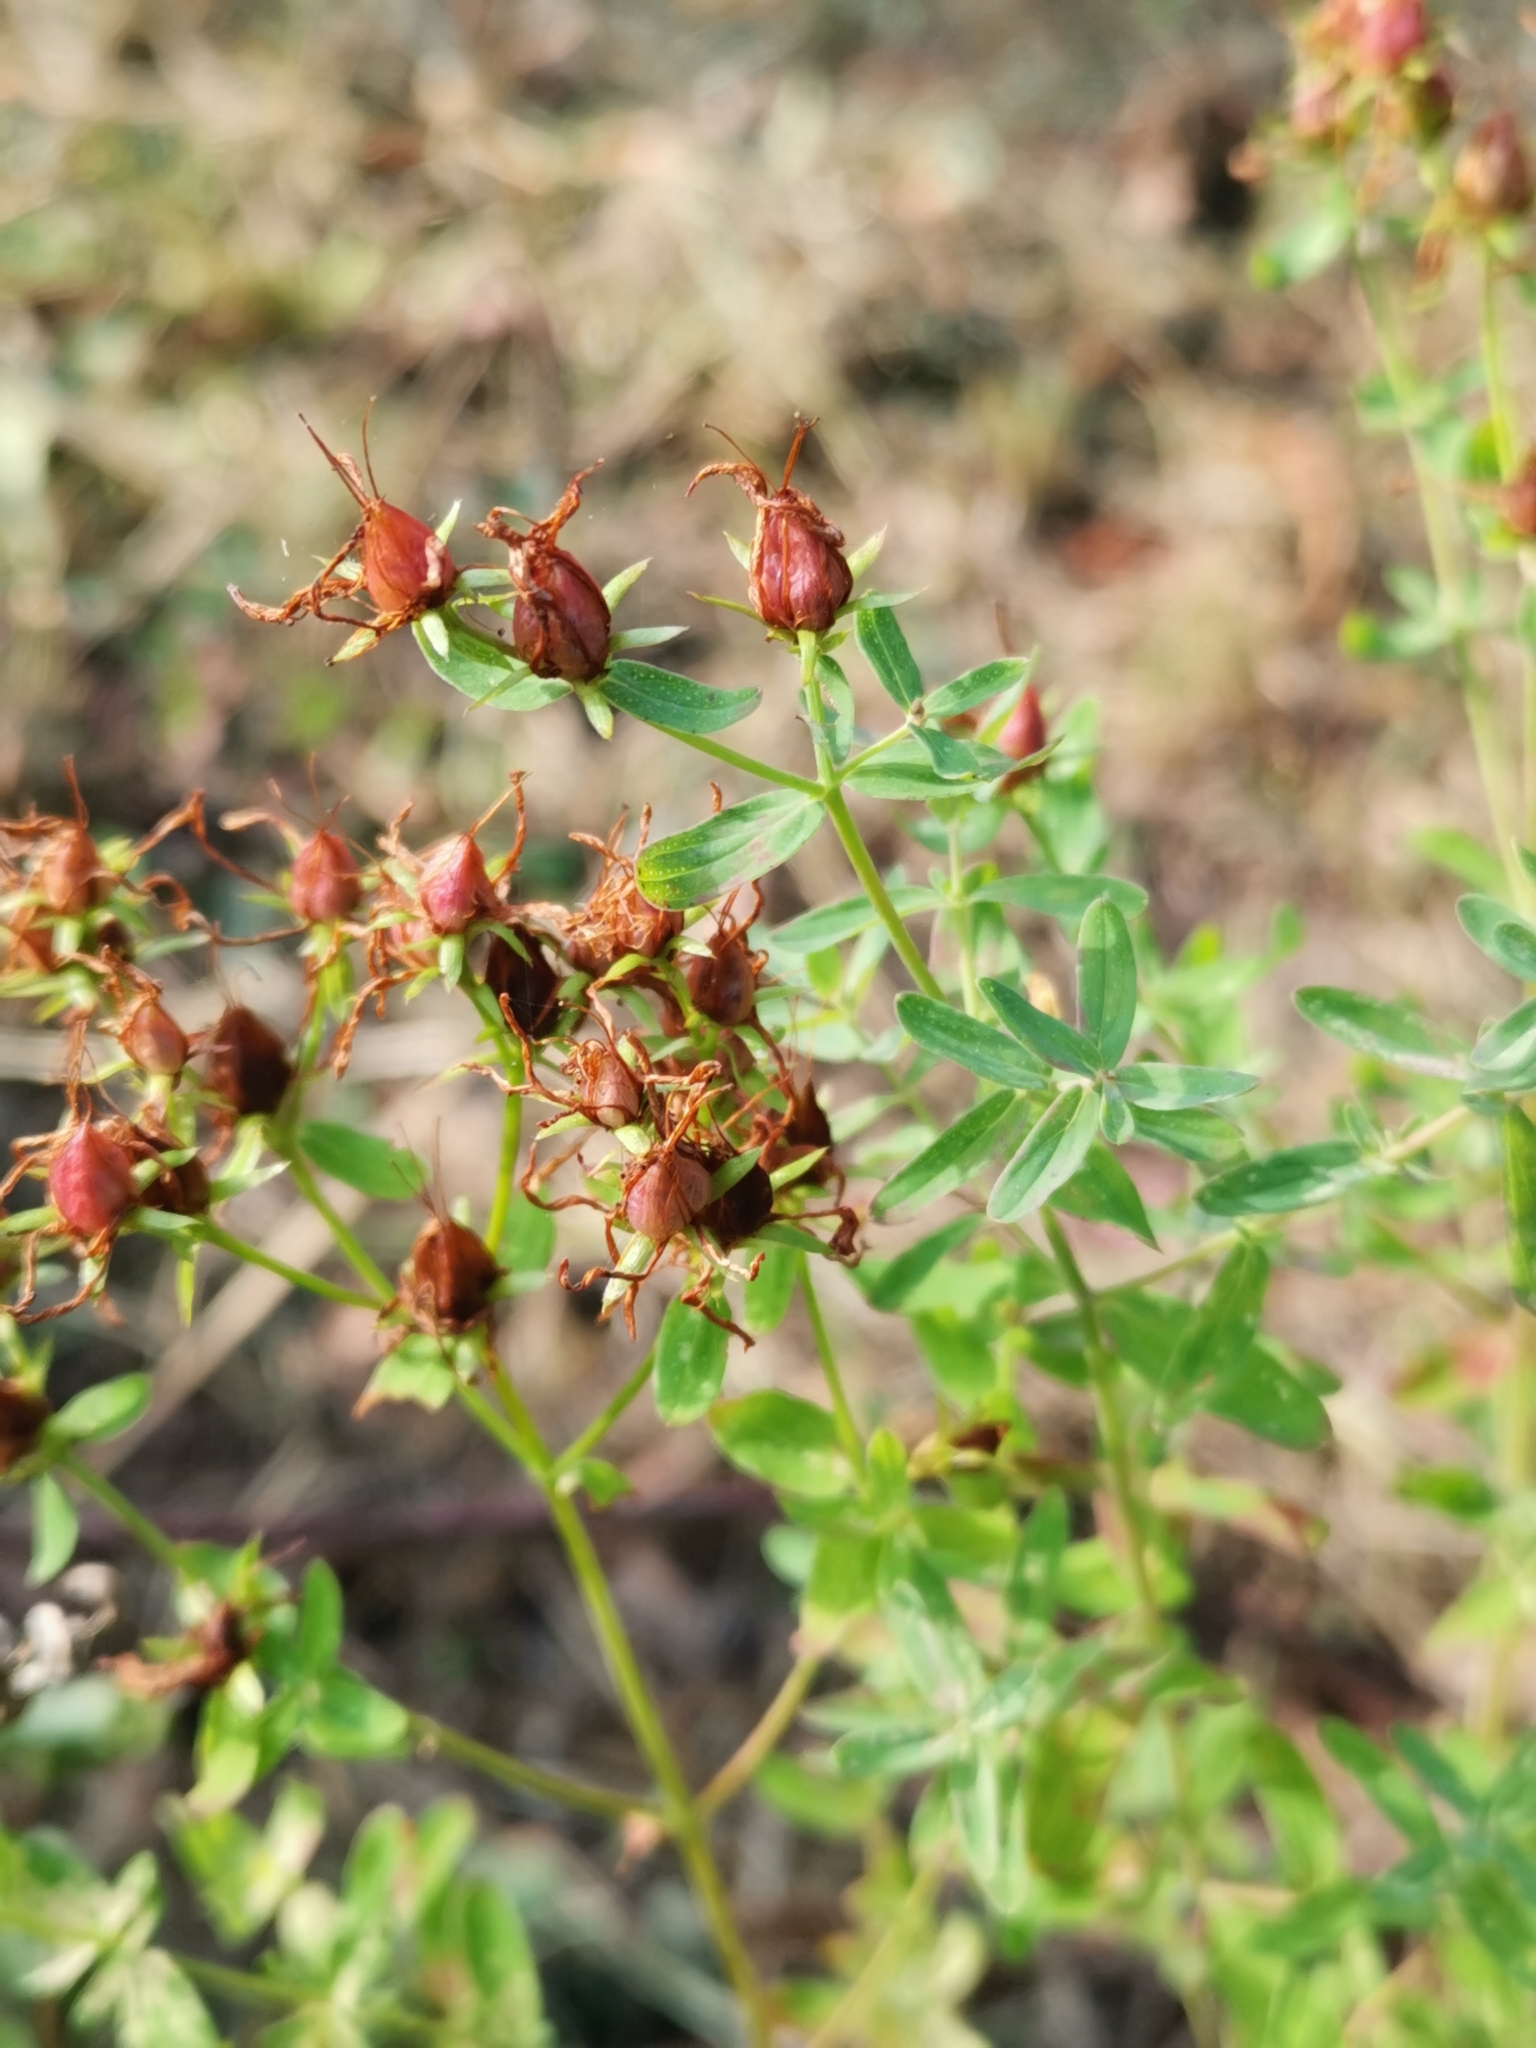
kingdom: Plantae
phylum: Tracheophyta
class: Magnoliopsida
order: Malpighiales
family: Hypericaceae
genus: Hypericum
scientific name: Hypericum perforatum
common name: Common st. johnswort
